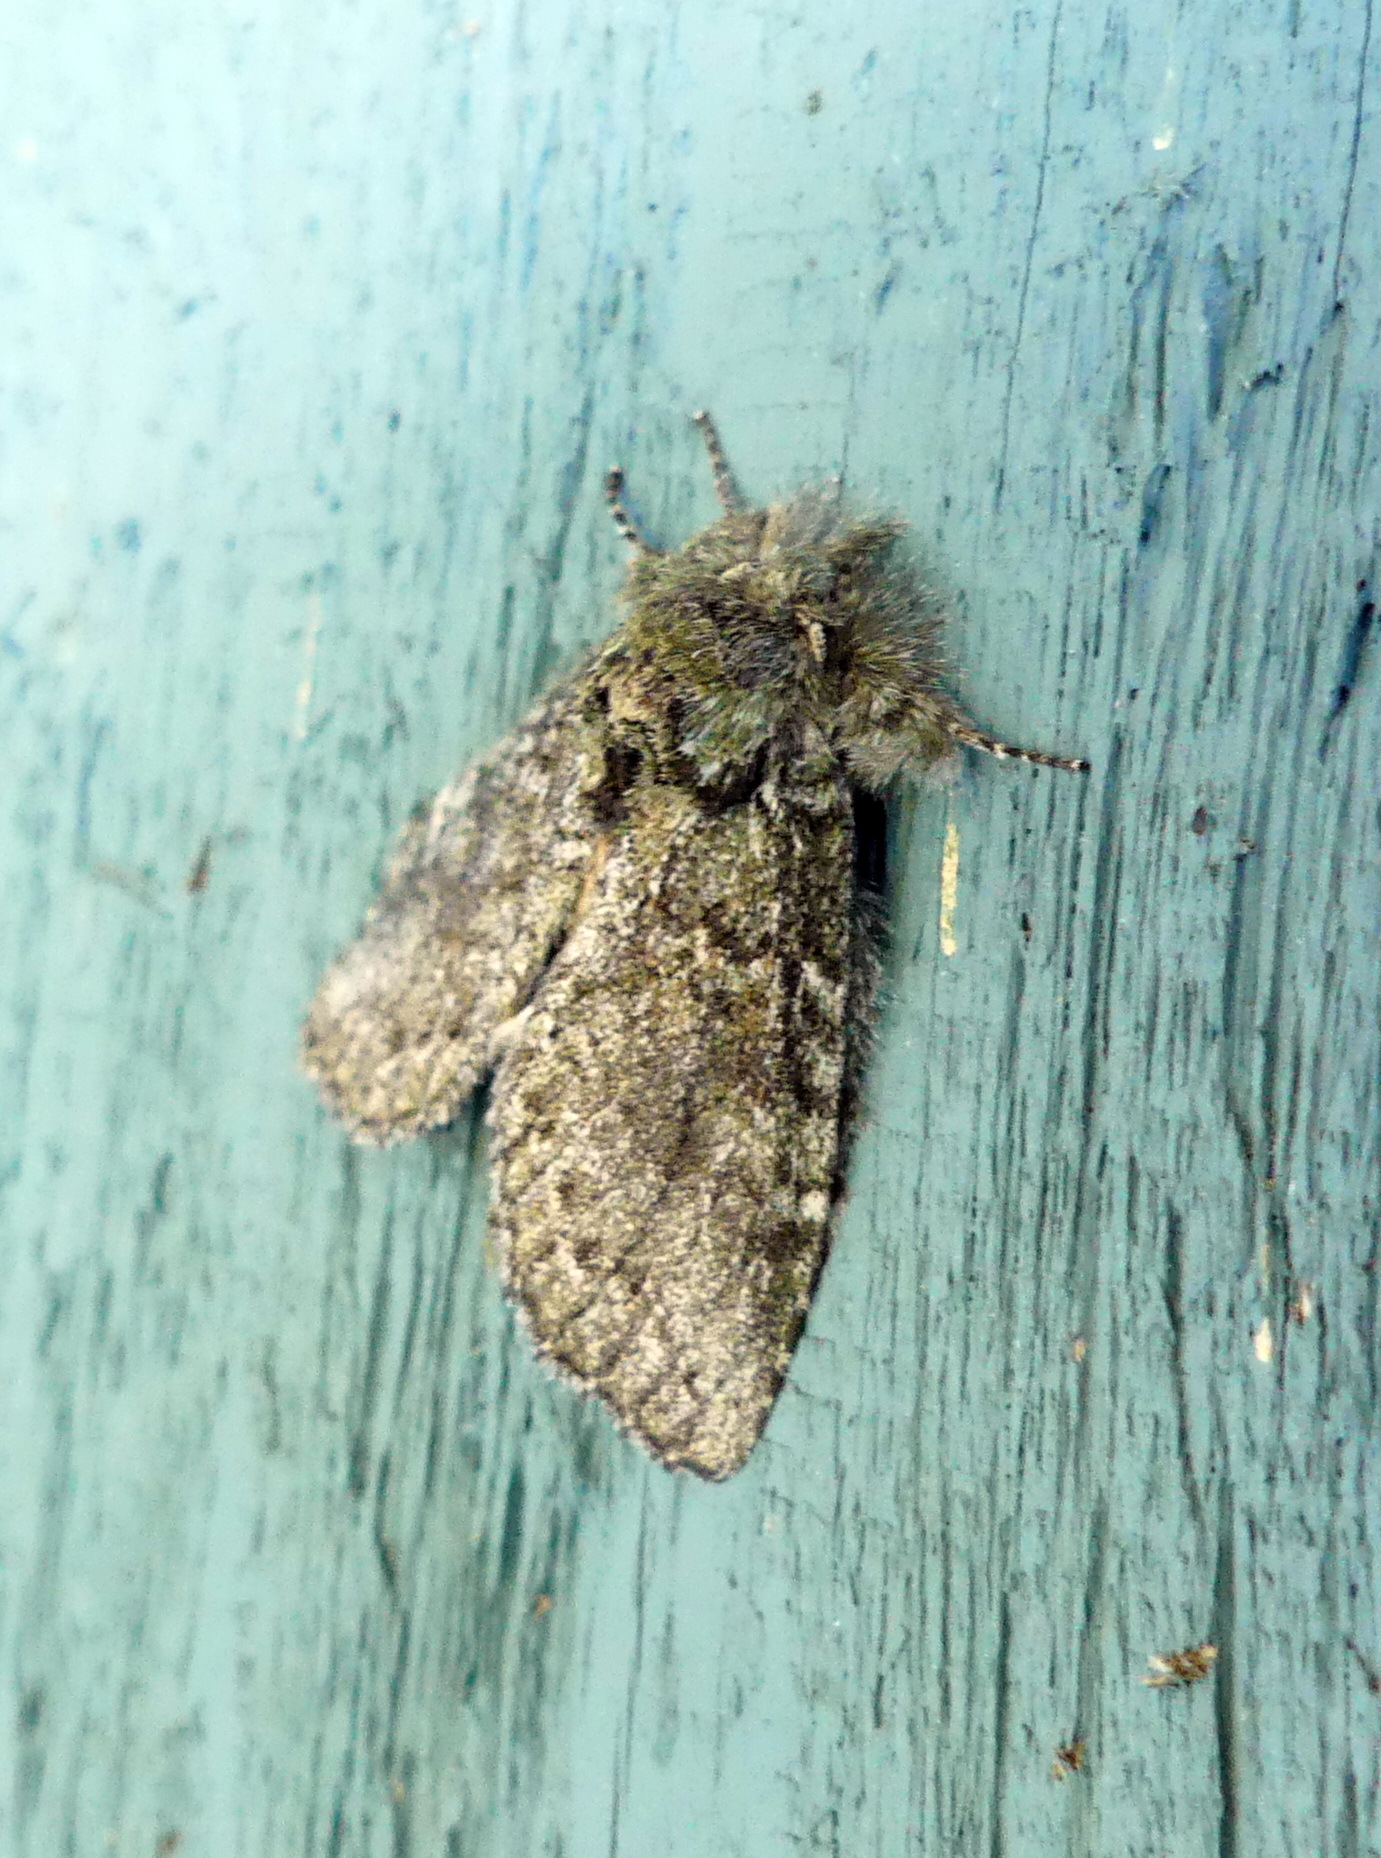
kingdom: Animalia
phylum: Arthropoda
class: Insecta
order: Lepidoptera
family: Notodontidae
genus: Disphragis
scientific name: Disphragis Cecrita guttivitta
